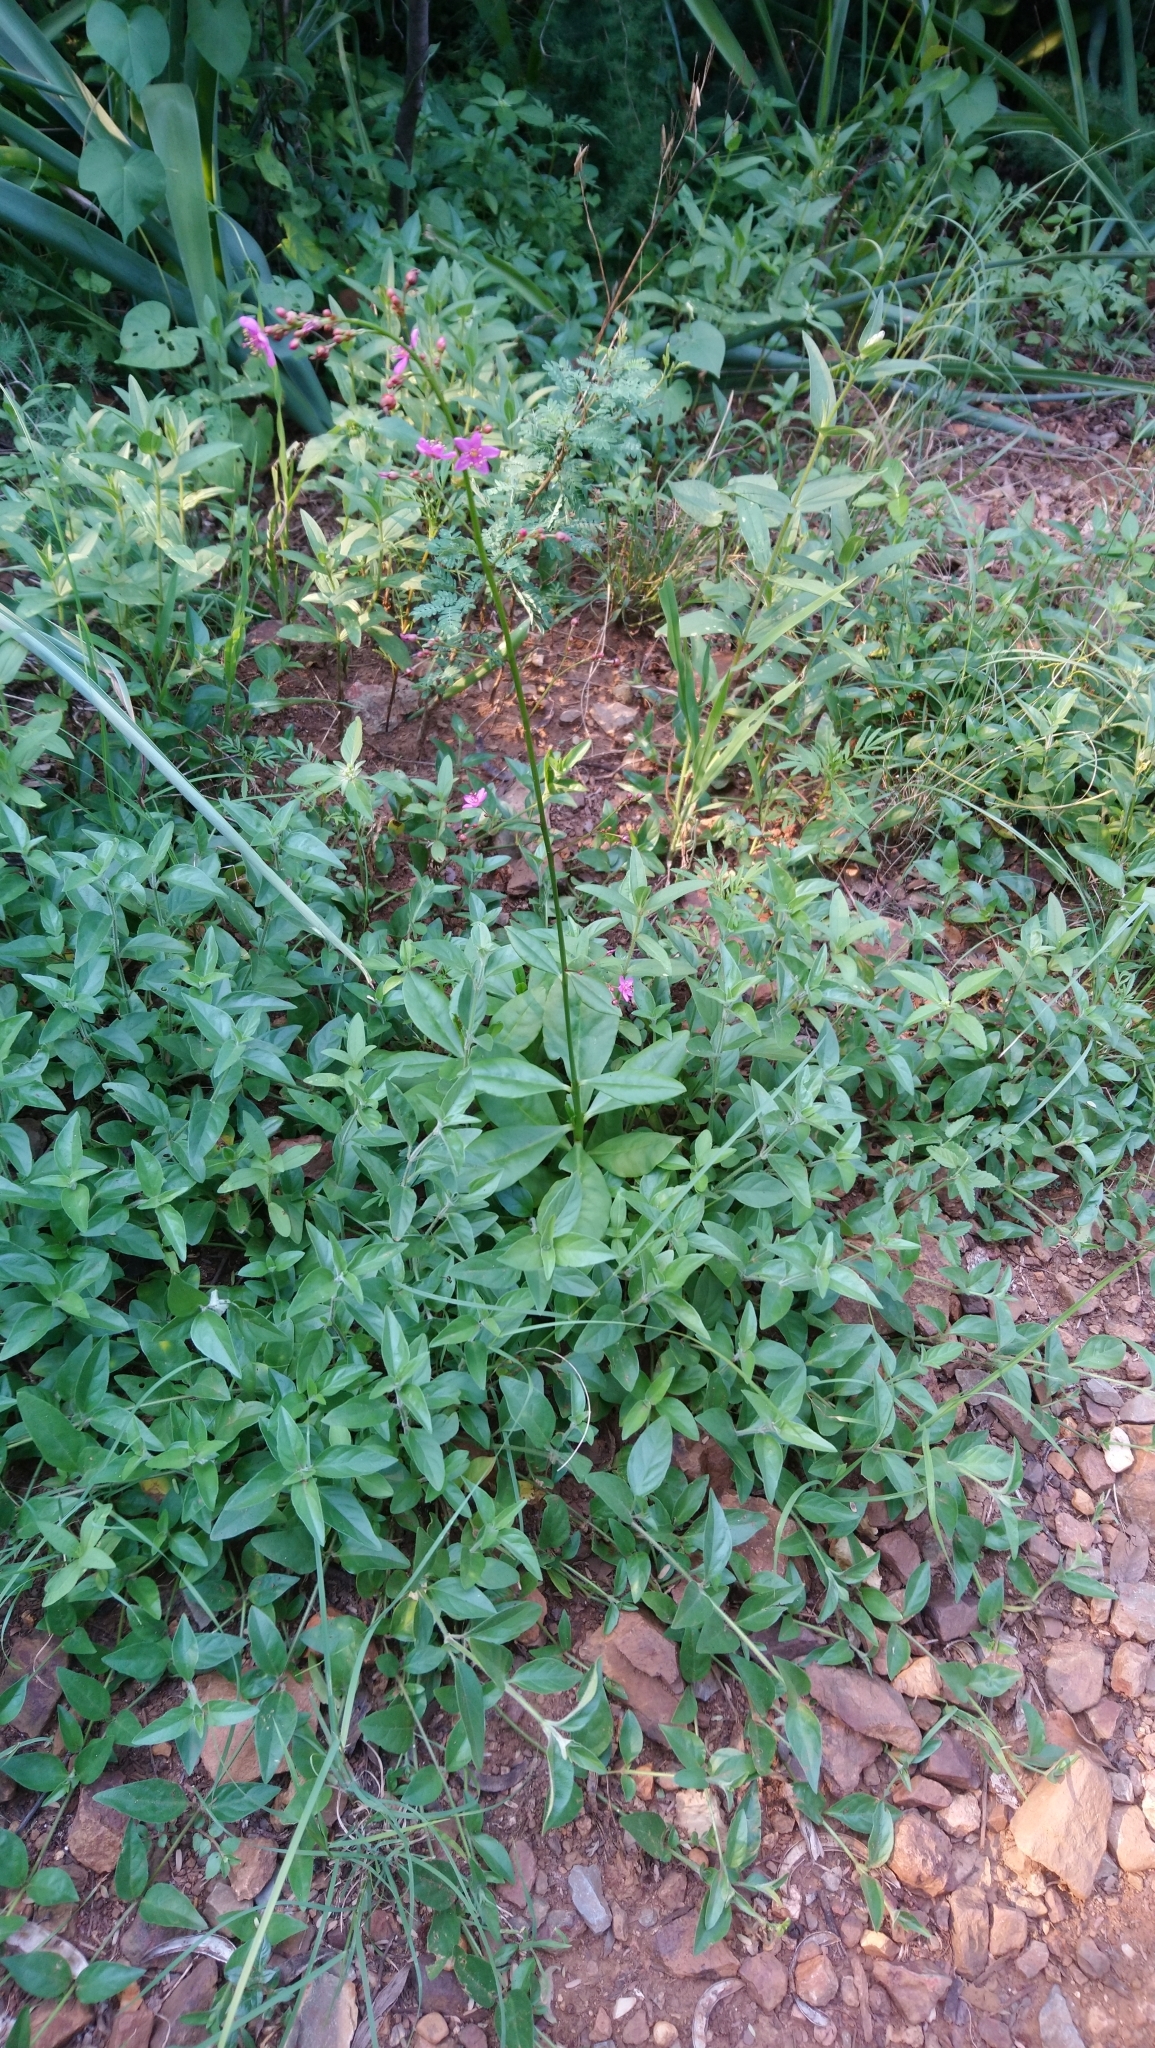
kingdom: Plantae
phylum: Tracheophyta
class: Magnoliopsida
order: Caryophyllales
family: Talinaceae
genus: Talinum
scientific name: Talinum paniculatum
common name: Jewels of opar
